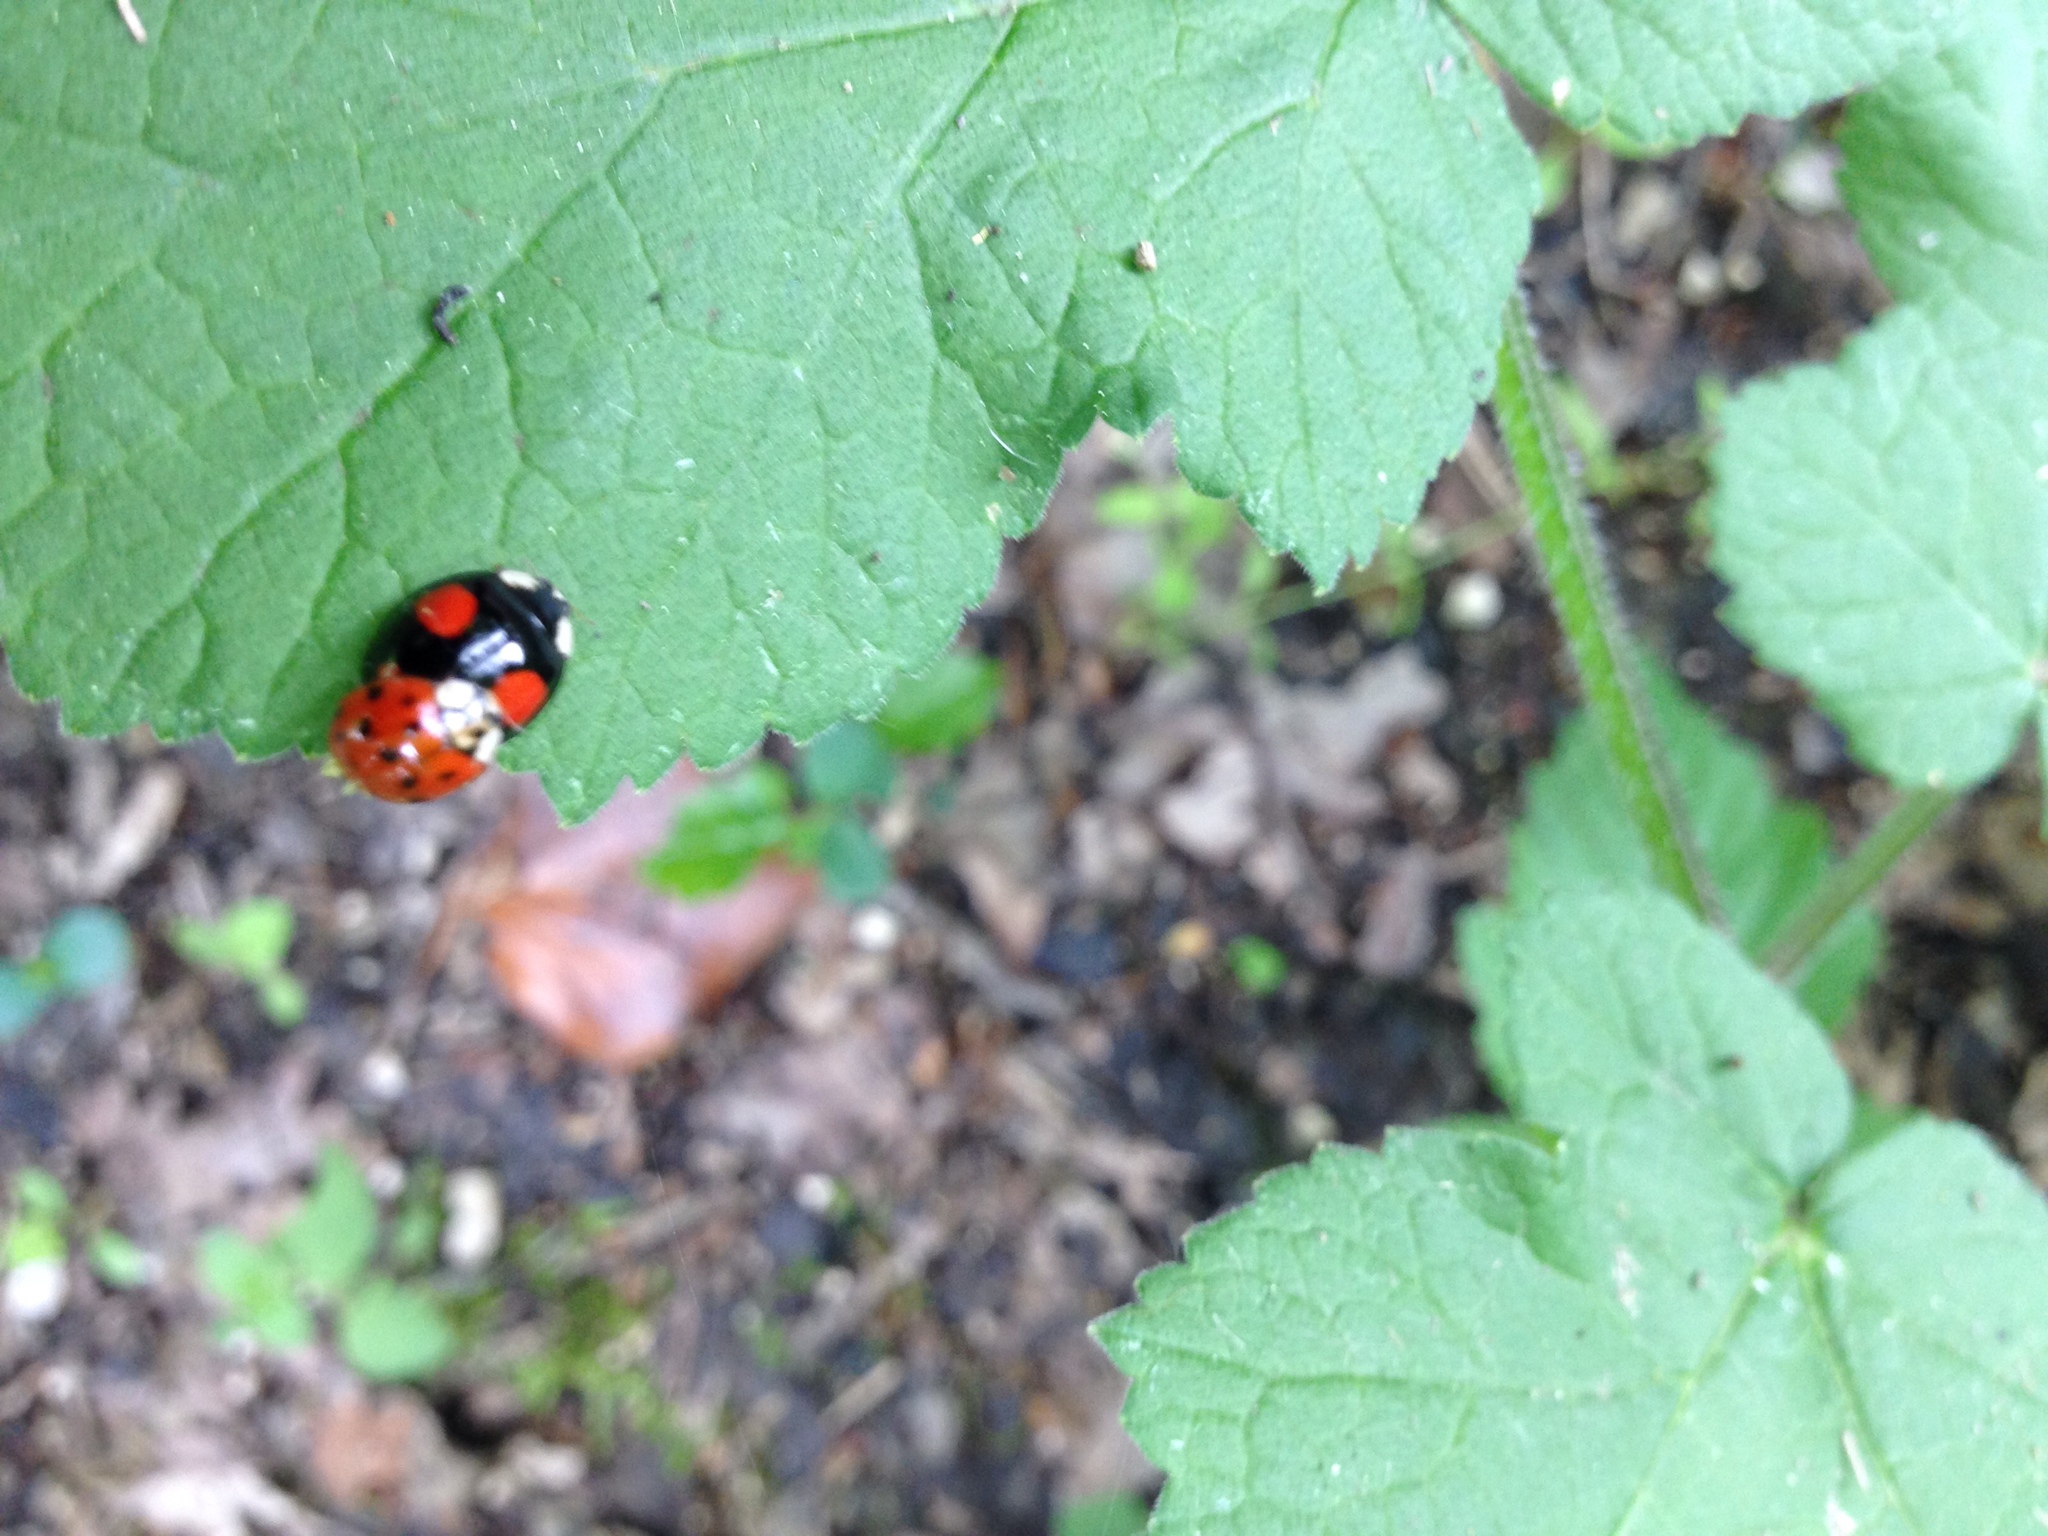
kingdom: Animalia
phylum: Arthropoda
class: Insecta
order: Coleoptera
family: Coccinellidae
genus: Harmonia
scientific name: Harmonia axyridis
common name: Harlequin ladybird
